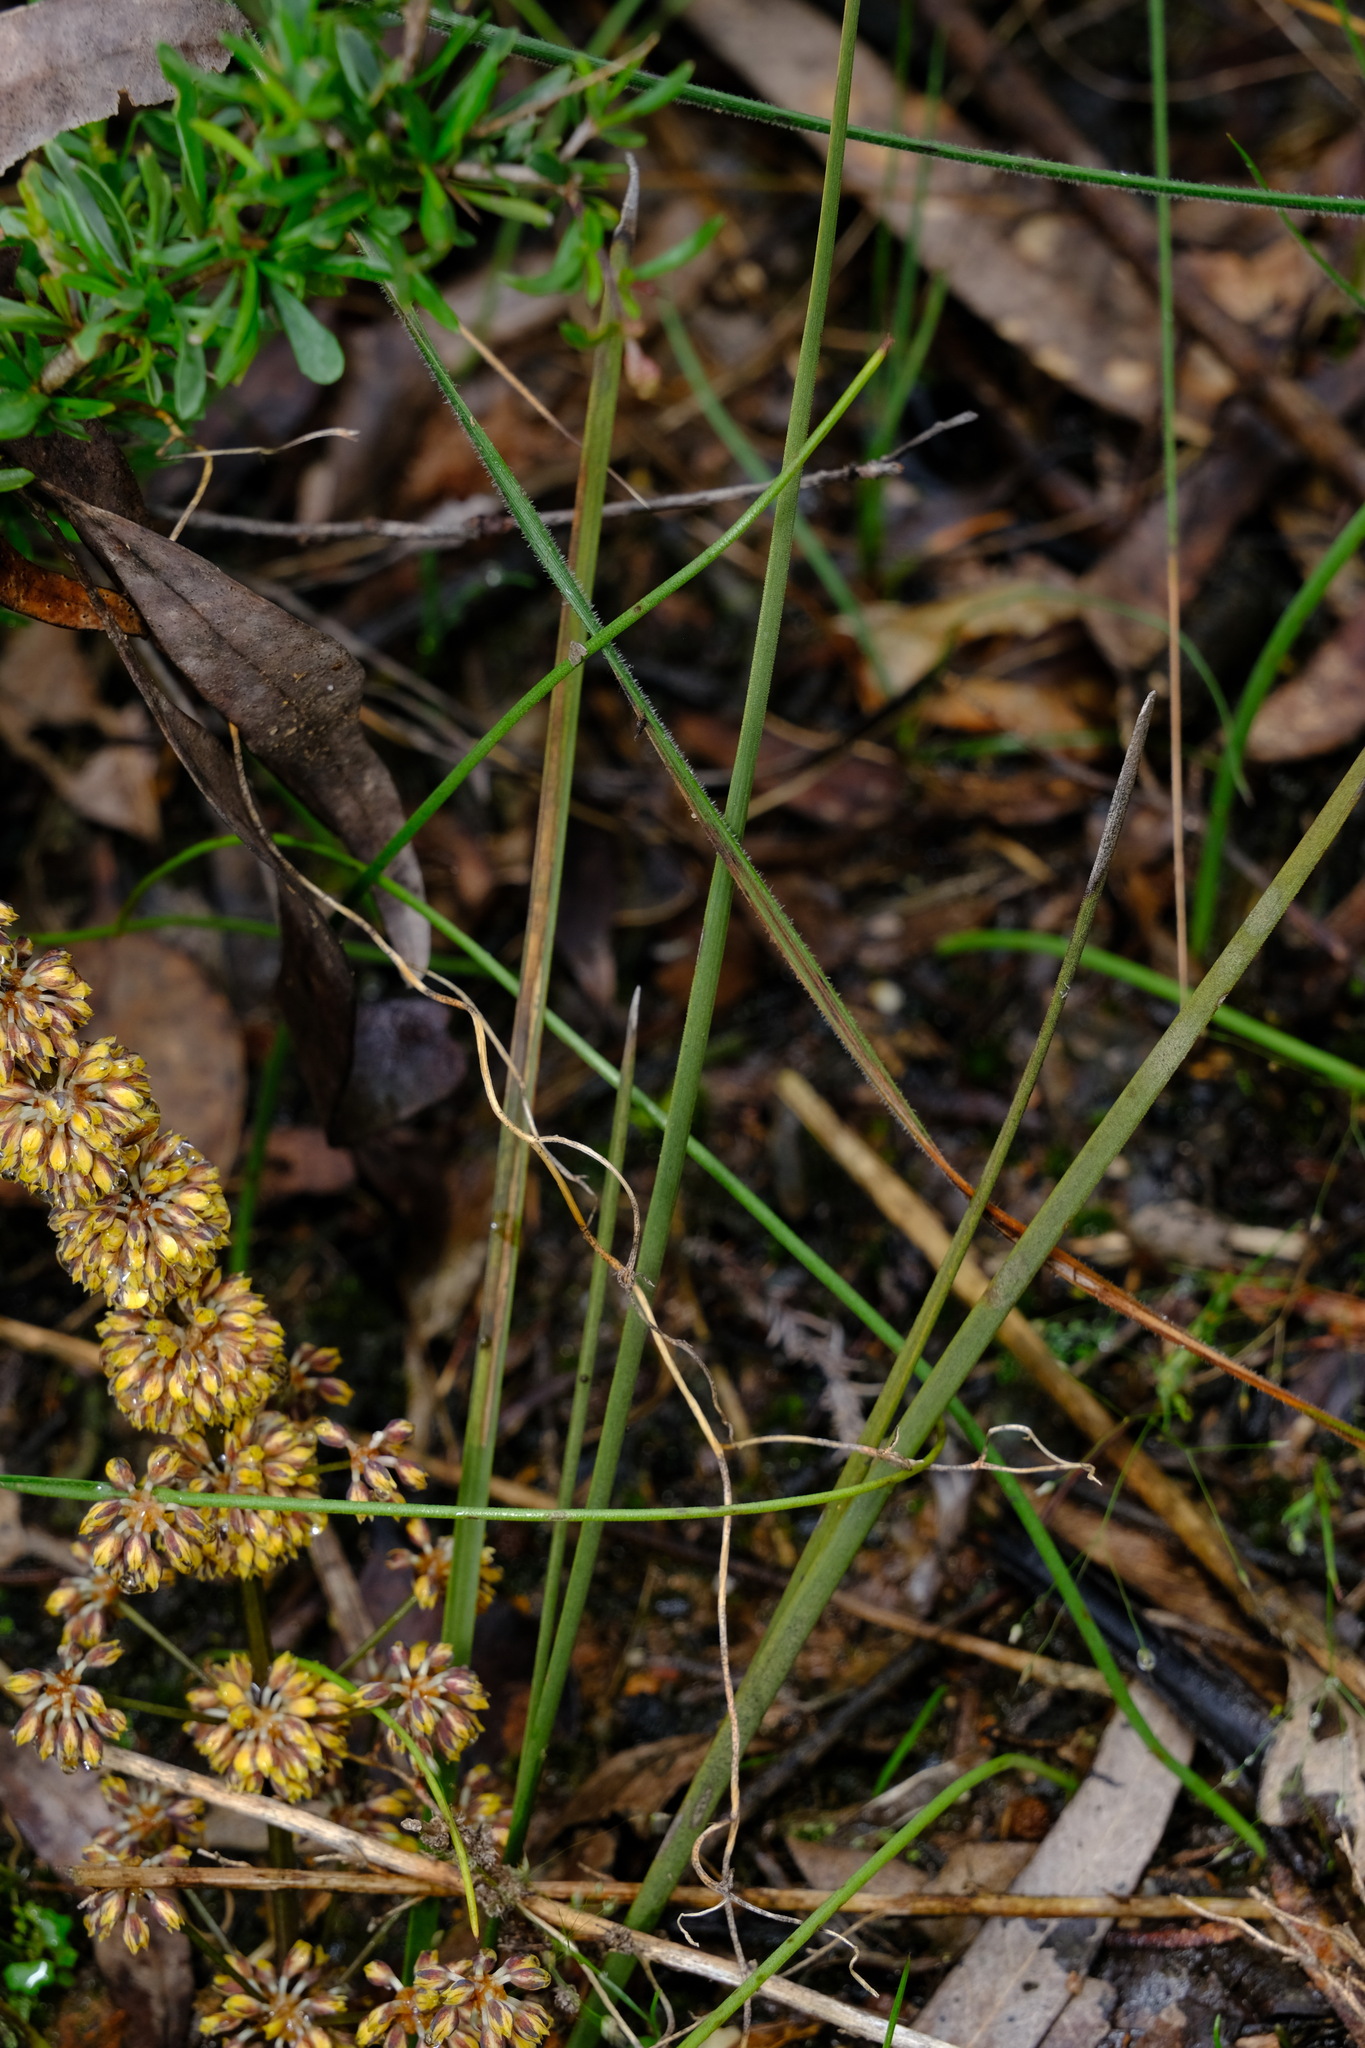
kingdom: Plantae
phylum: Tracheophyta
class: Liliopsida
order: Asparagales
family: Asparagaceae
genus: Lomandra
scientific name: Lomandra multiflora
